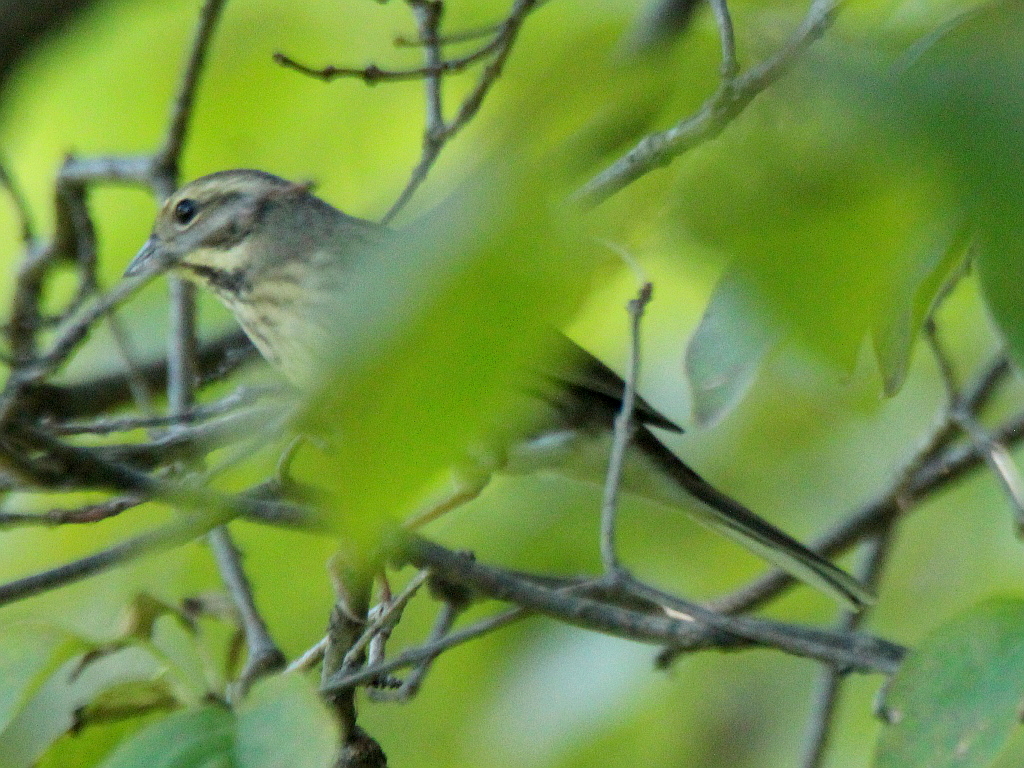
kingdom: Animalia
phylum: Chordata
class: Aves
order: Passeriformes
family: Emberizidae
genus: Emberiza
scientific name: Emberiza aureola
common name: Yellow-breasted bunting
